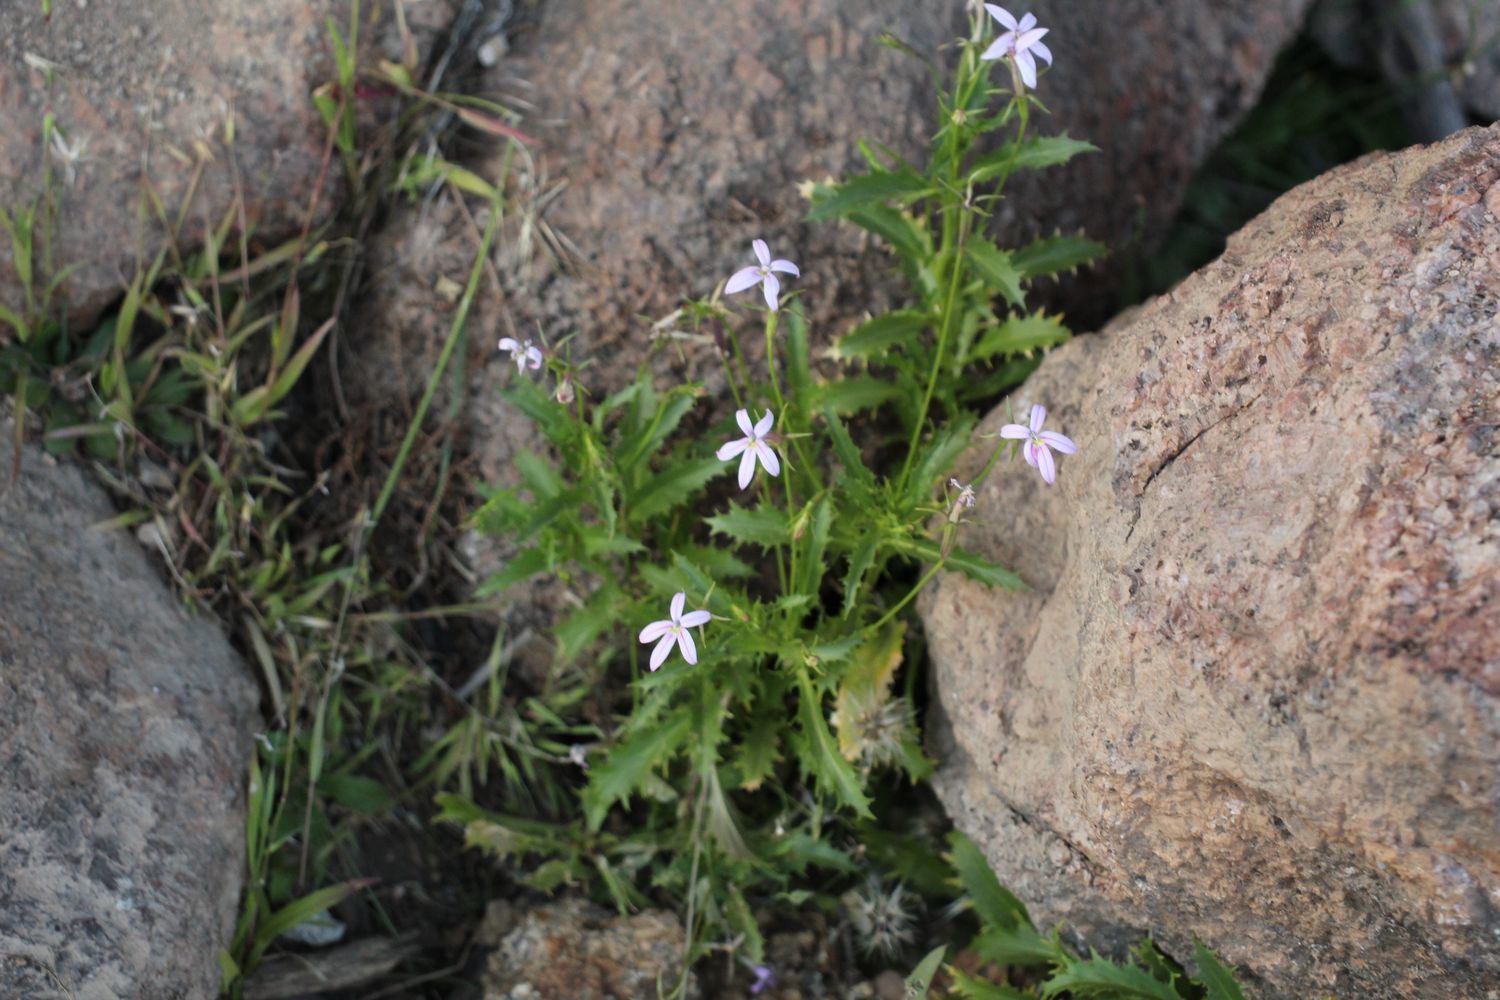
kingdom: Plantae
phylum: Tracheophyta
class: Magnoliopsida
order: Asterales
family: Campanulaceae
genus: Lithotoma
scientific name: Lithotoma axillaris
